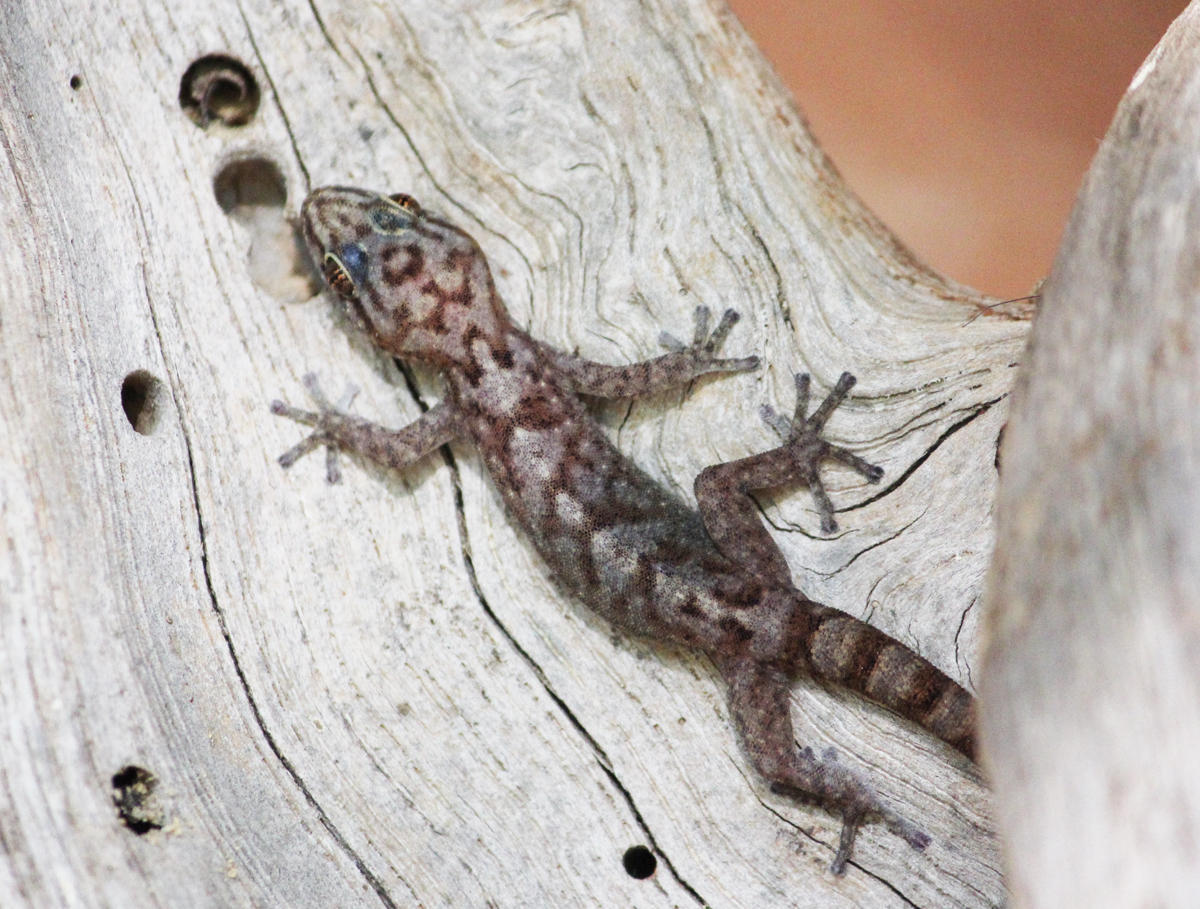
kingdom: Animalia
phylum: Chordata
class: Squamata
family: Gekkonidae
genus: Afroedura
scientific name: Afroedura pienaari
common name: Pienaar’s rock gecko
